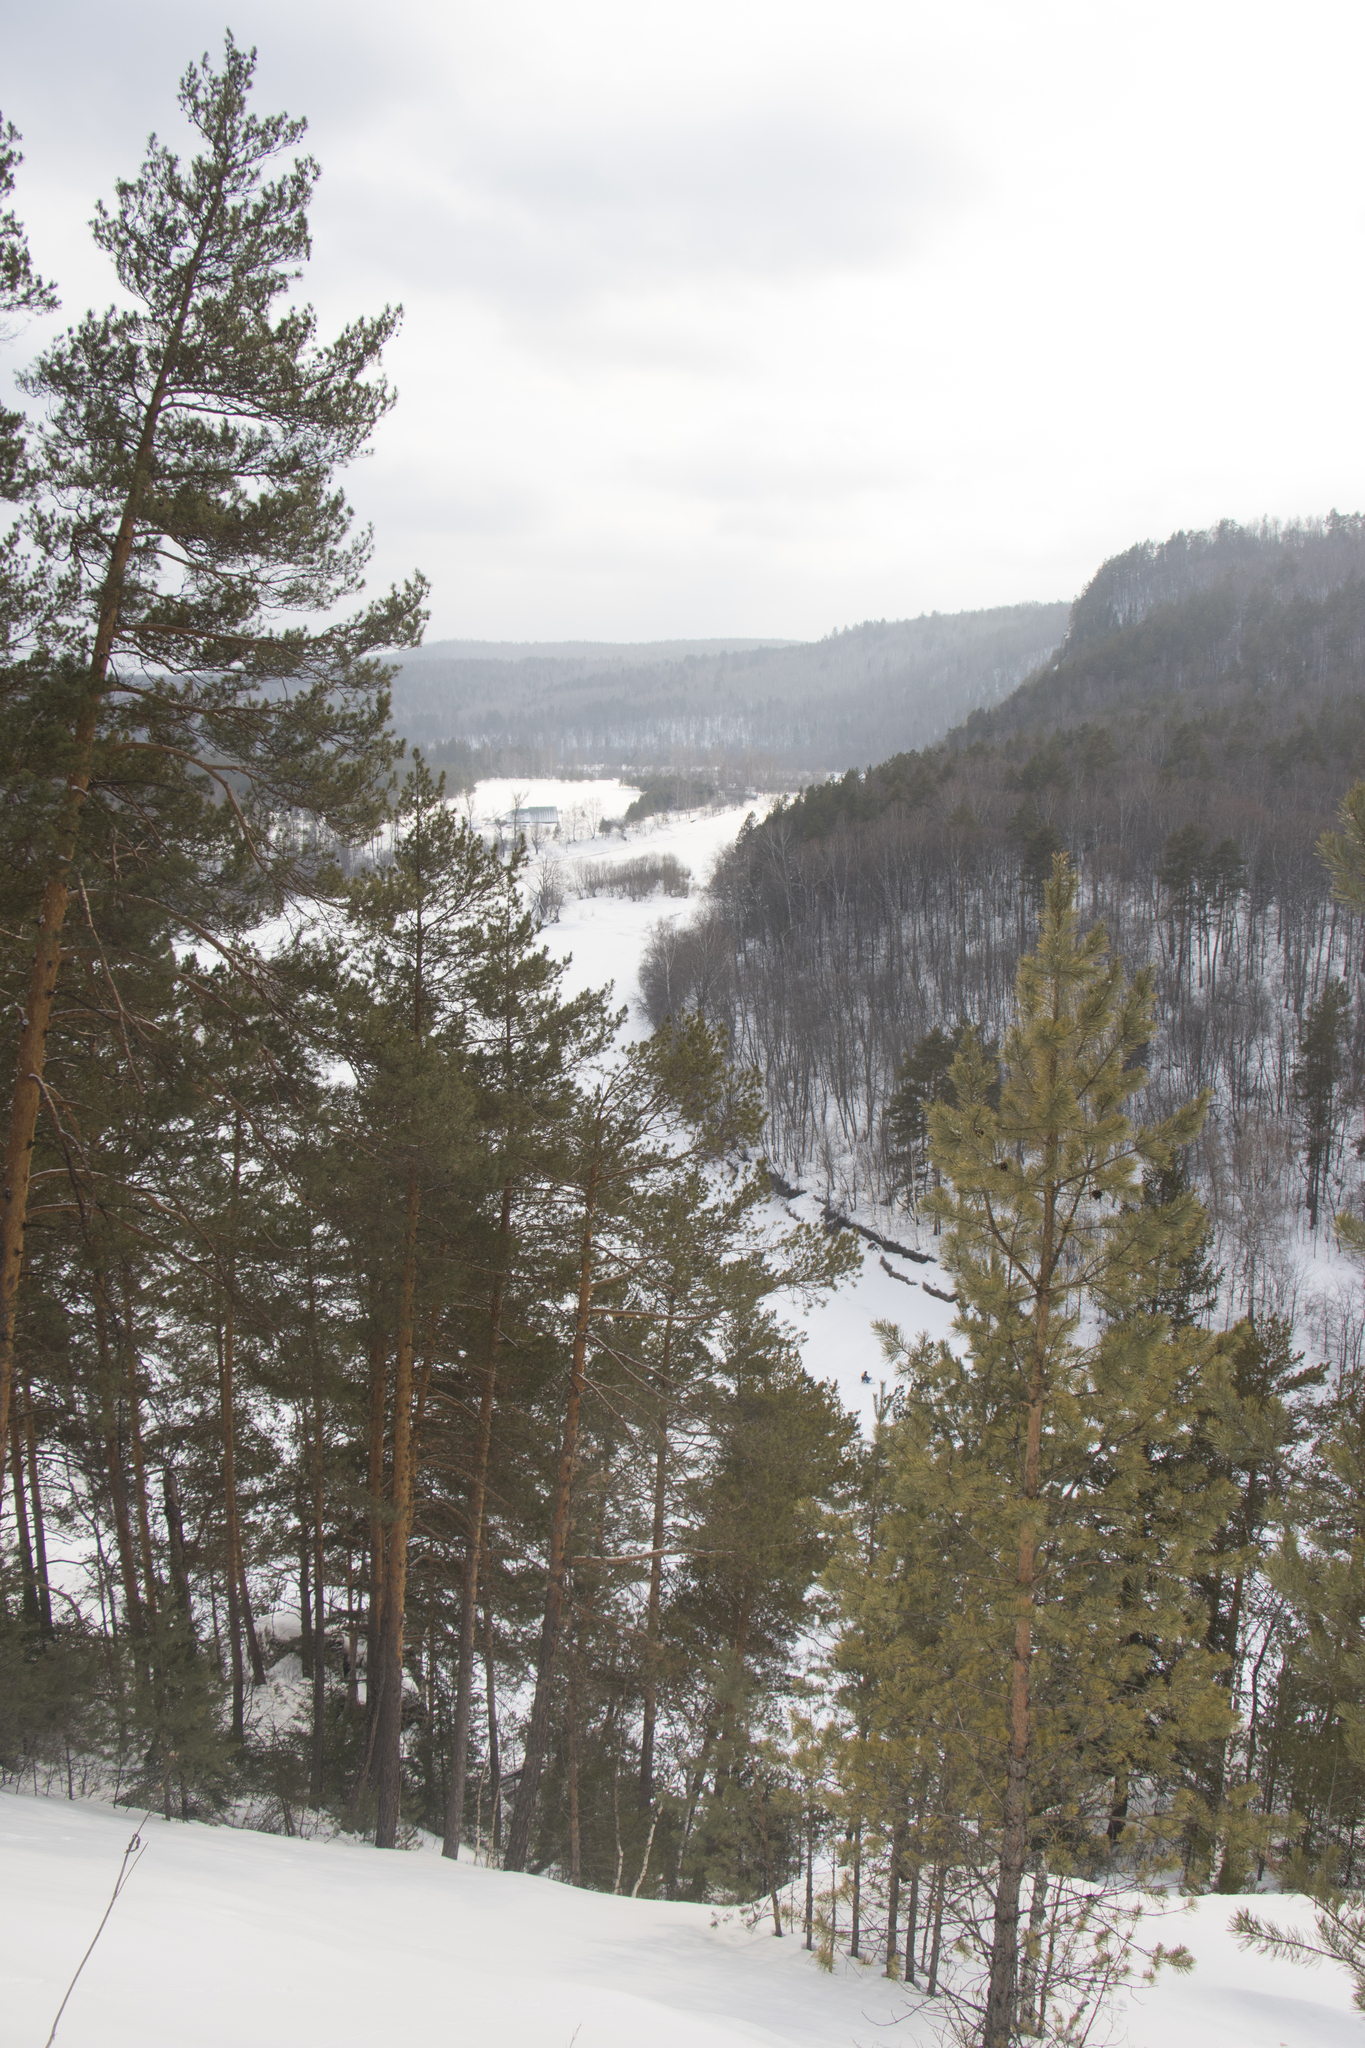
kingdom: Plantae
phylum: Tracheophyta
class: Pinopsida
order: Pinales
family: Pinaceae
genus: Pinus
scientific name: Pinus sylvestris
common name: Scots pine
